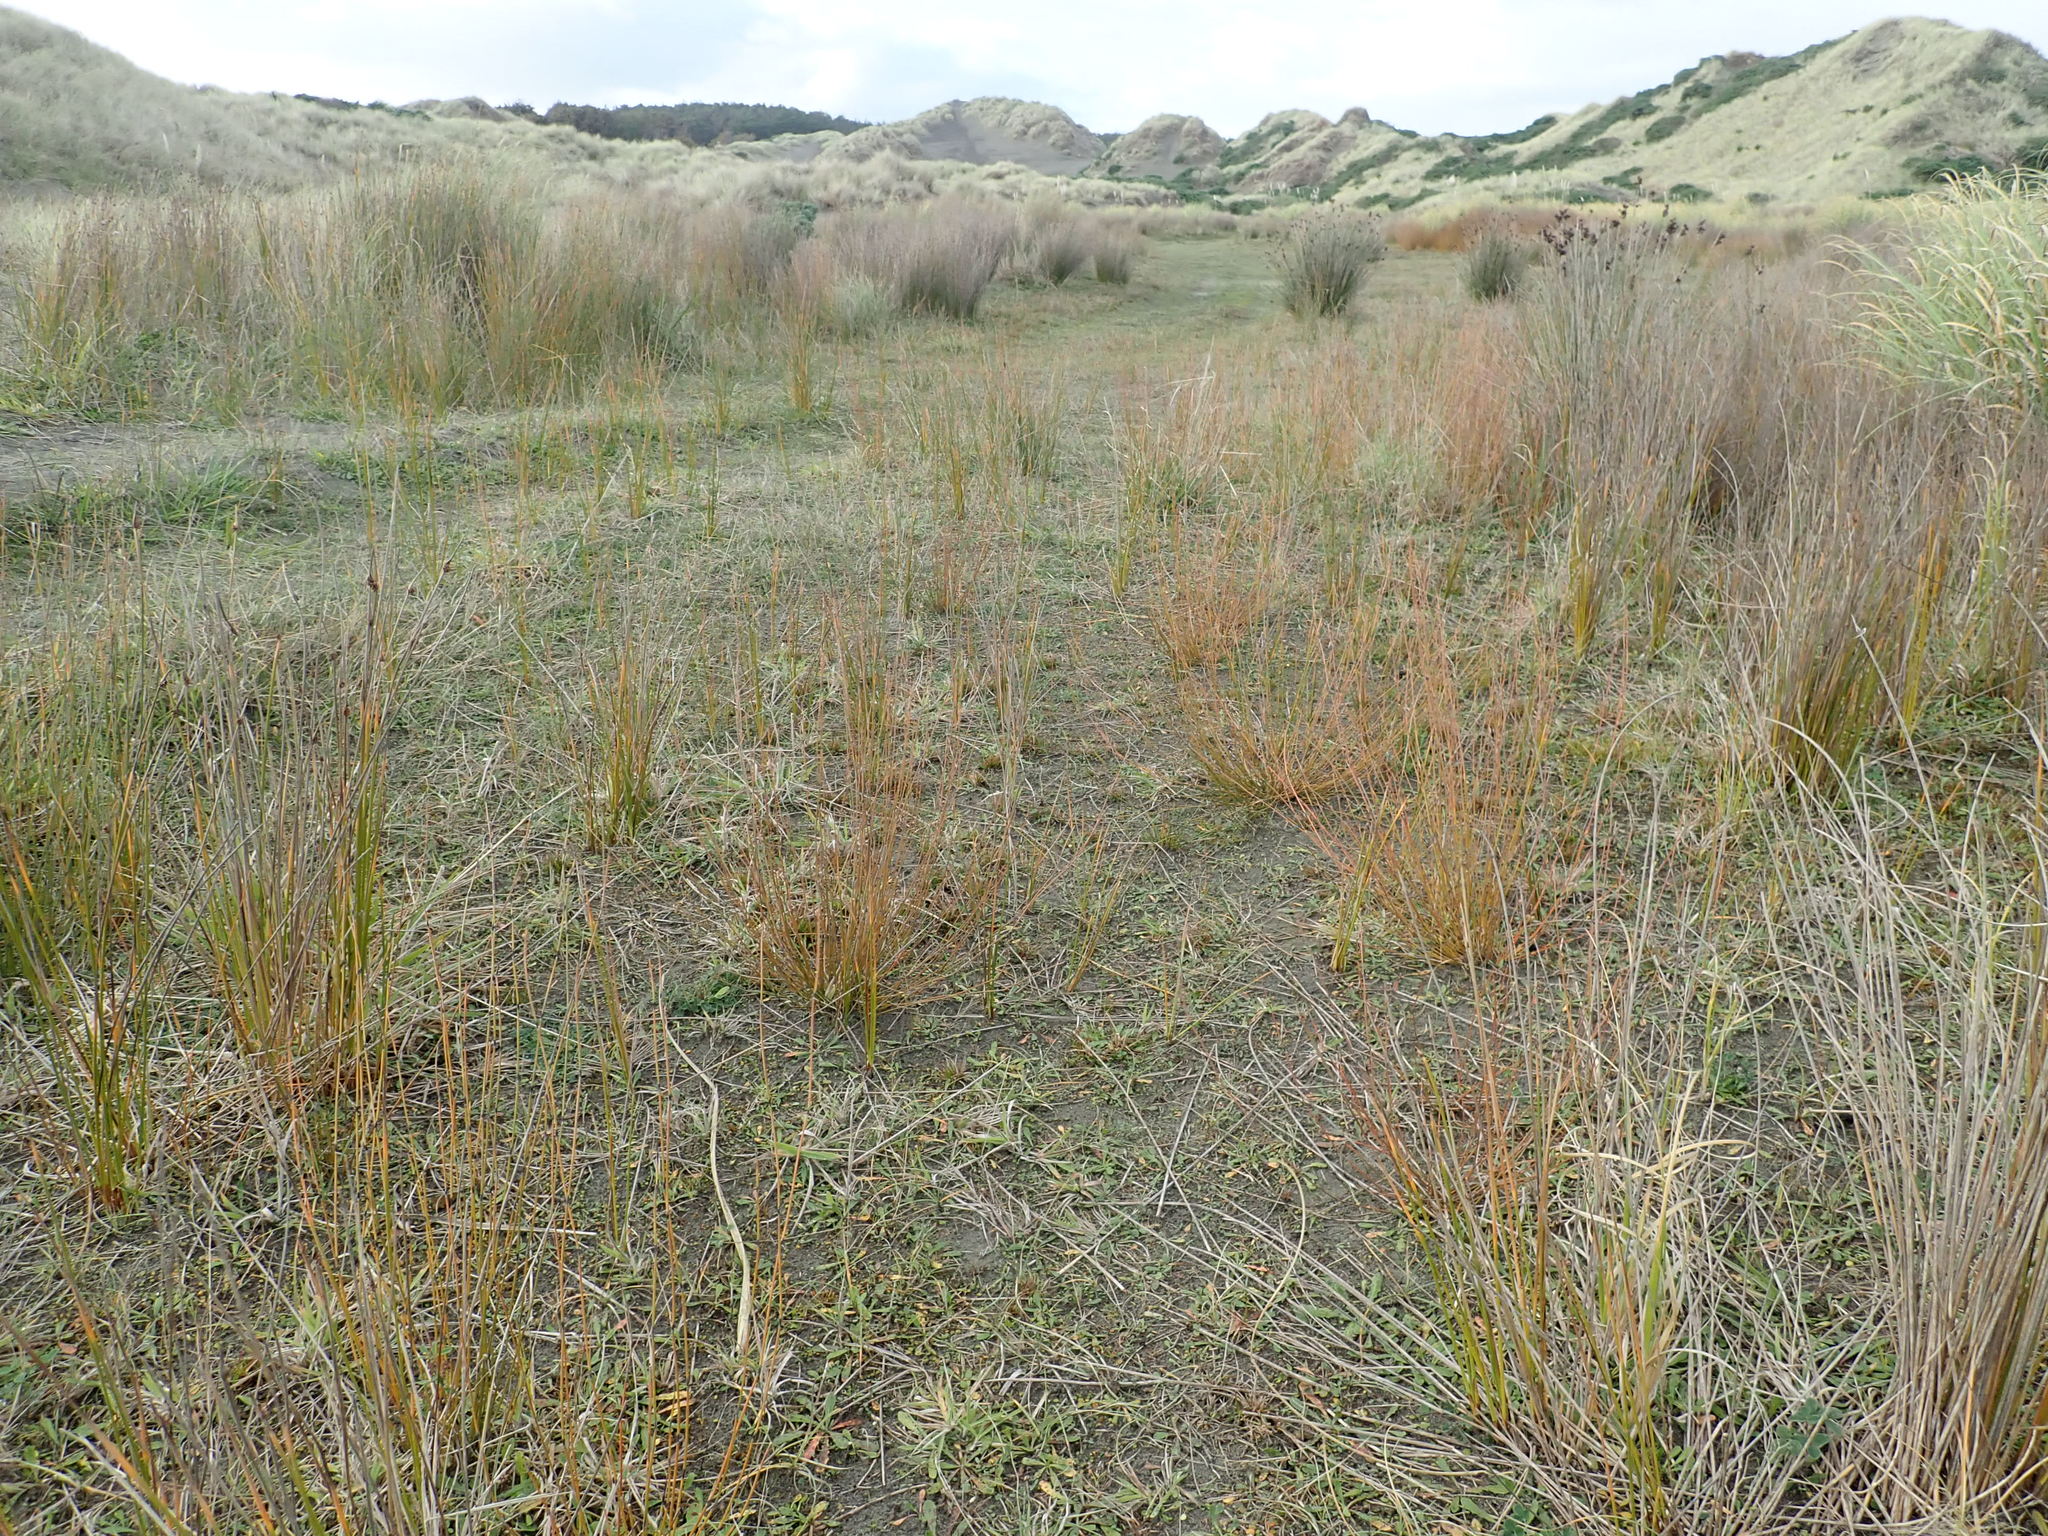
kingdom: Plantae
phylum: Tracheophyta
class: Liliopsida
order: Poales
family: Restionaceae
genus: Apodasmia
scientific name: Apodasmia similis
